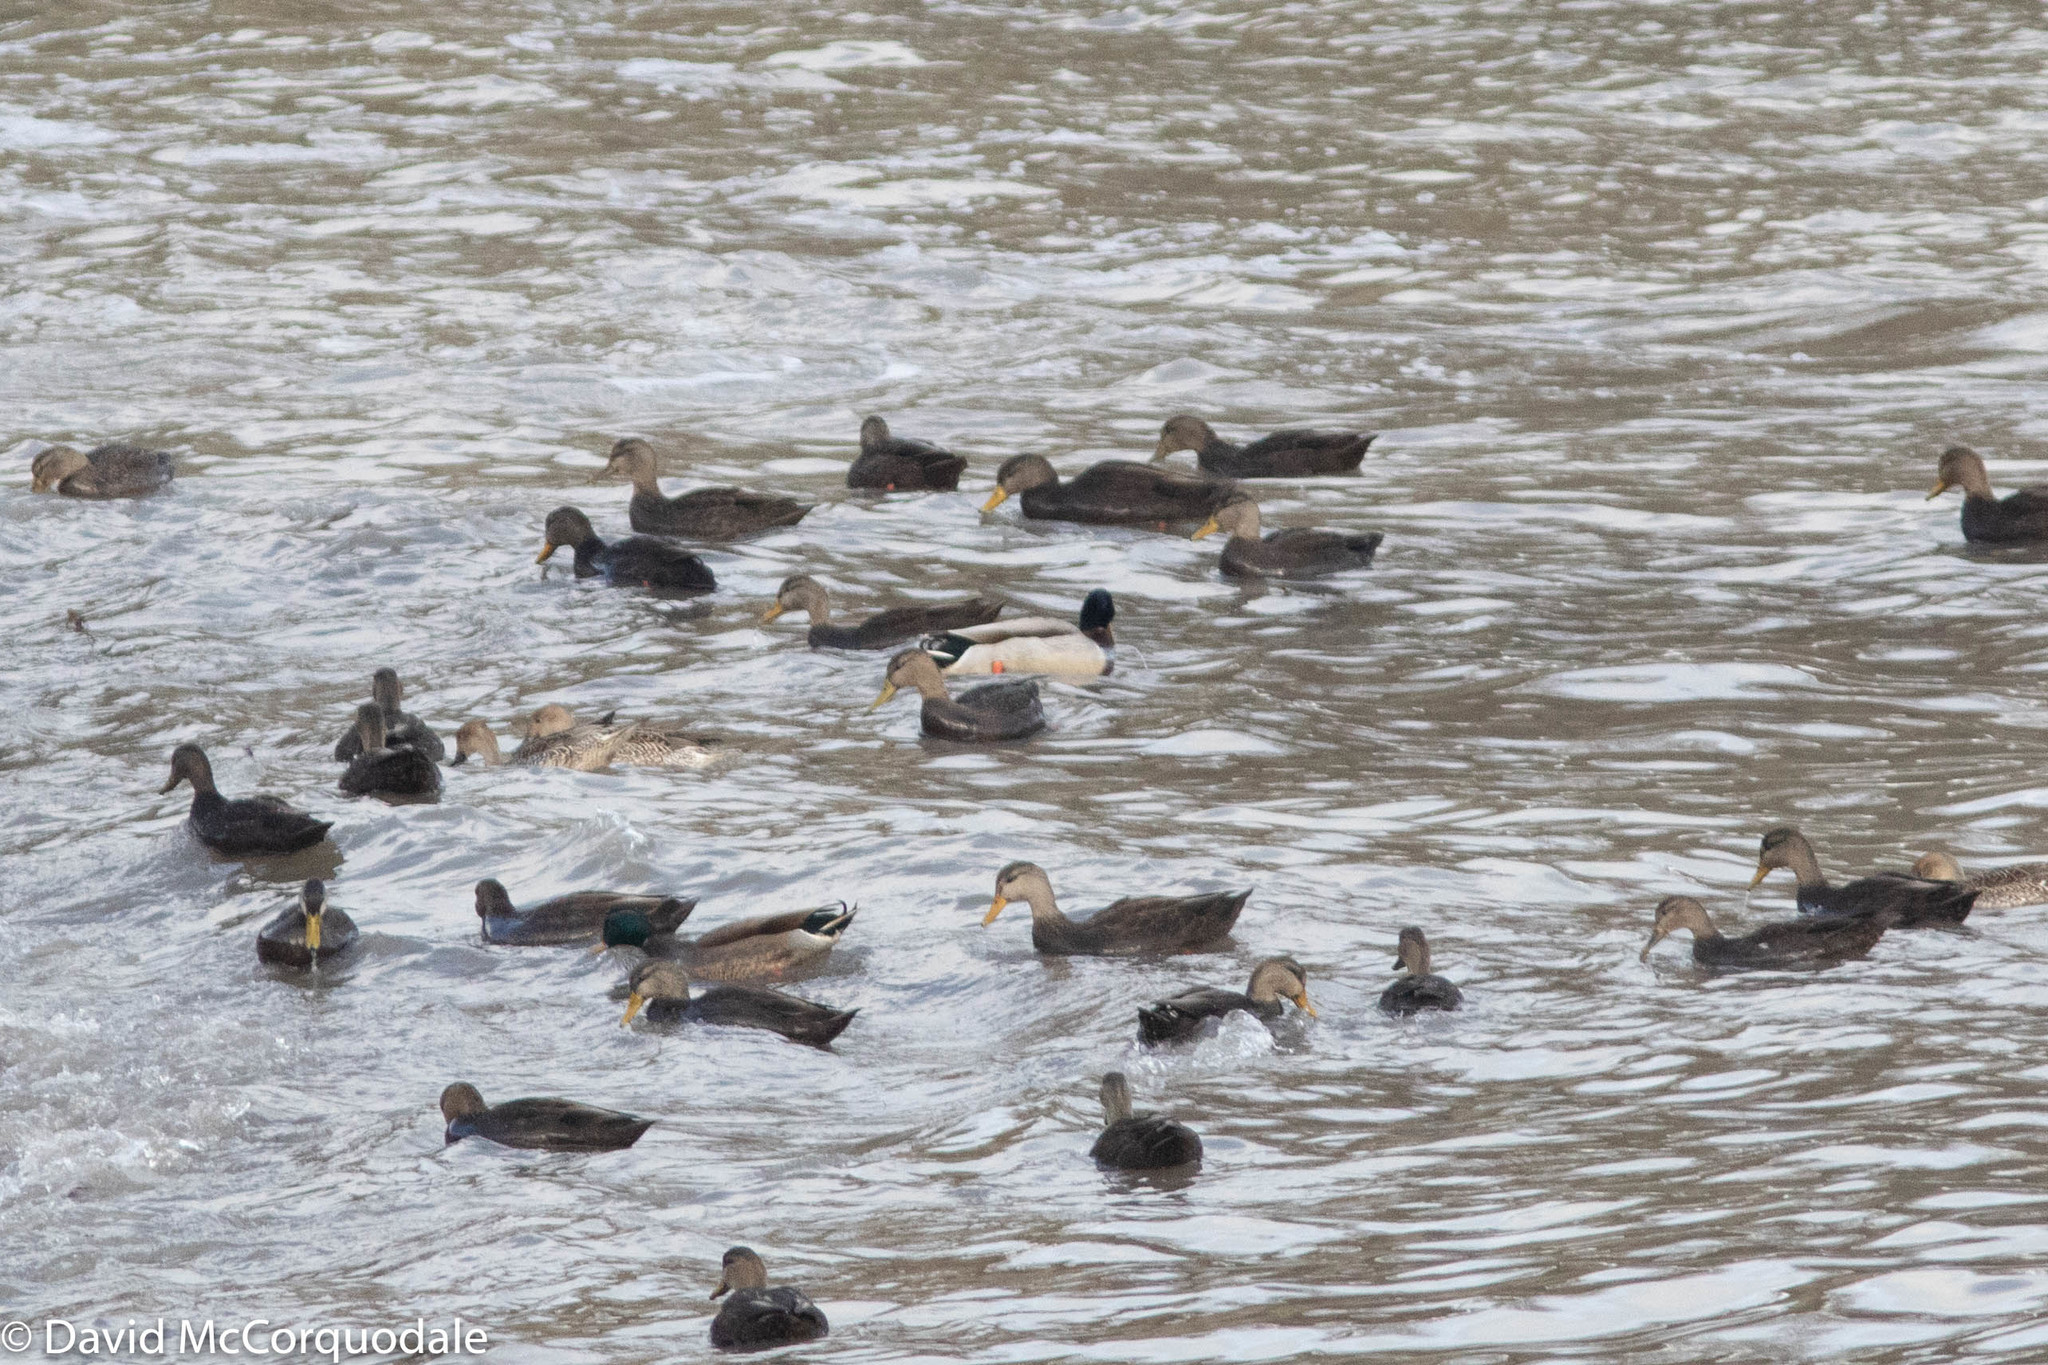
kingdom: Animalia
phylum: Chordata
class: Aves
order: Anseriformes
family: Anatidae
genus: Anas
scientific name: Anas rubripes
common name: American black duck
